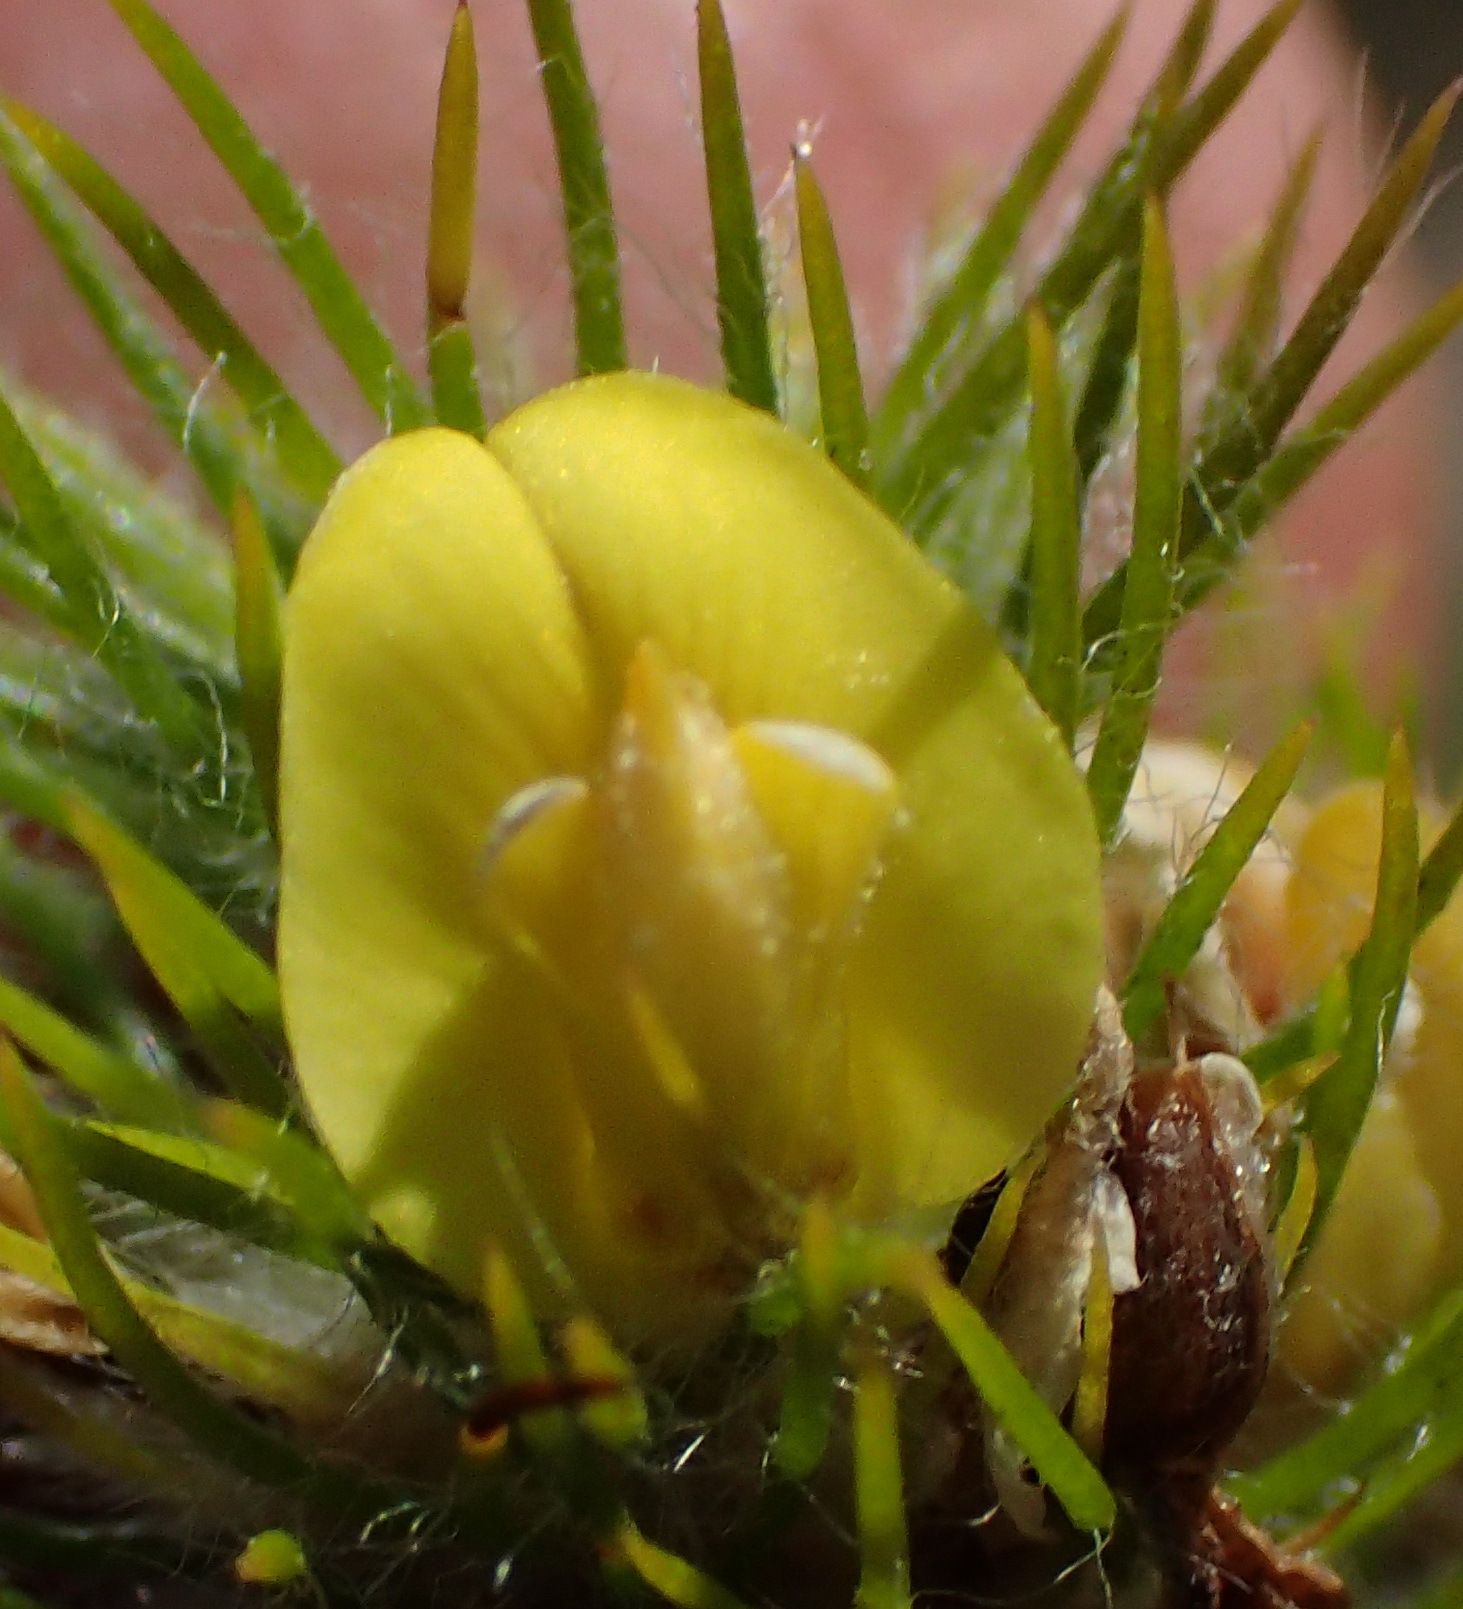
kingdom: Plantae
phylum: Tracheophyta
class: Magnoliopsida
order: Fabales
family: Fabaceae
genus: Aspalathus
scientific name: Aspalathus alopecurus
